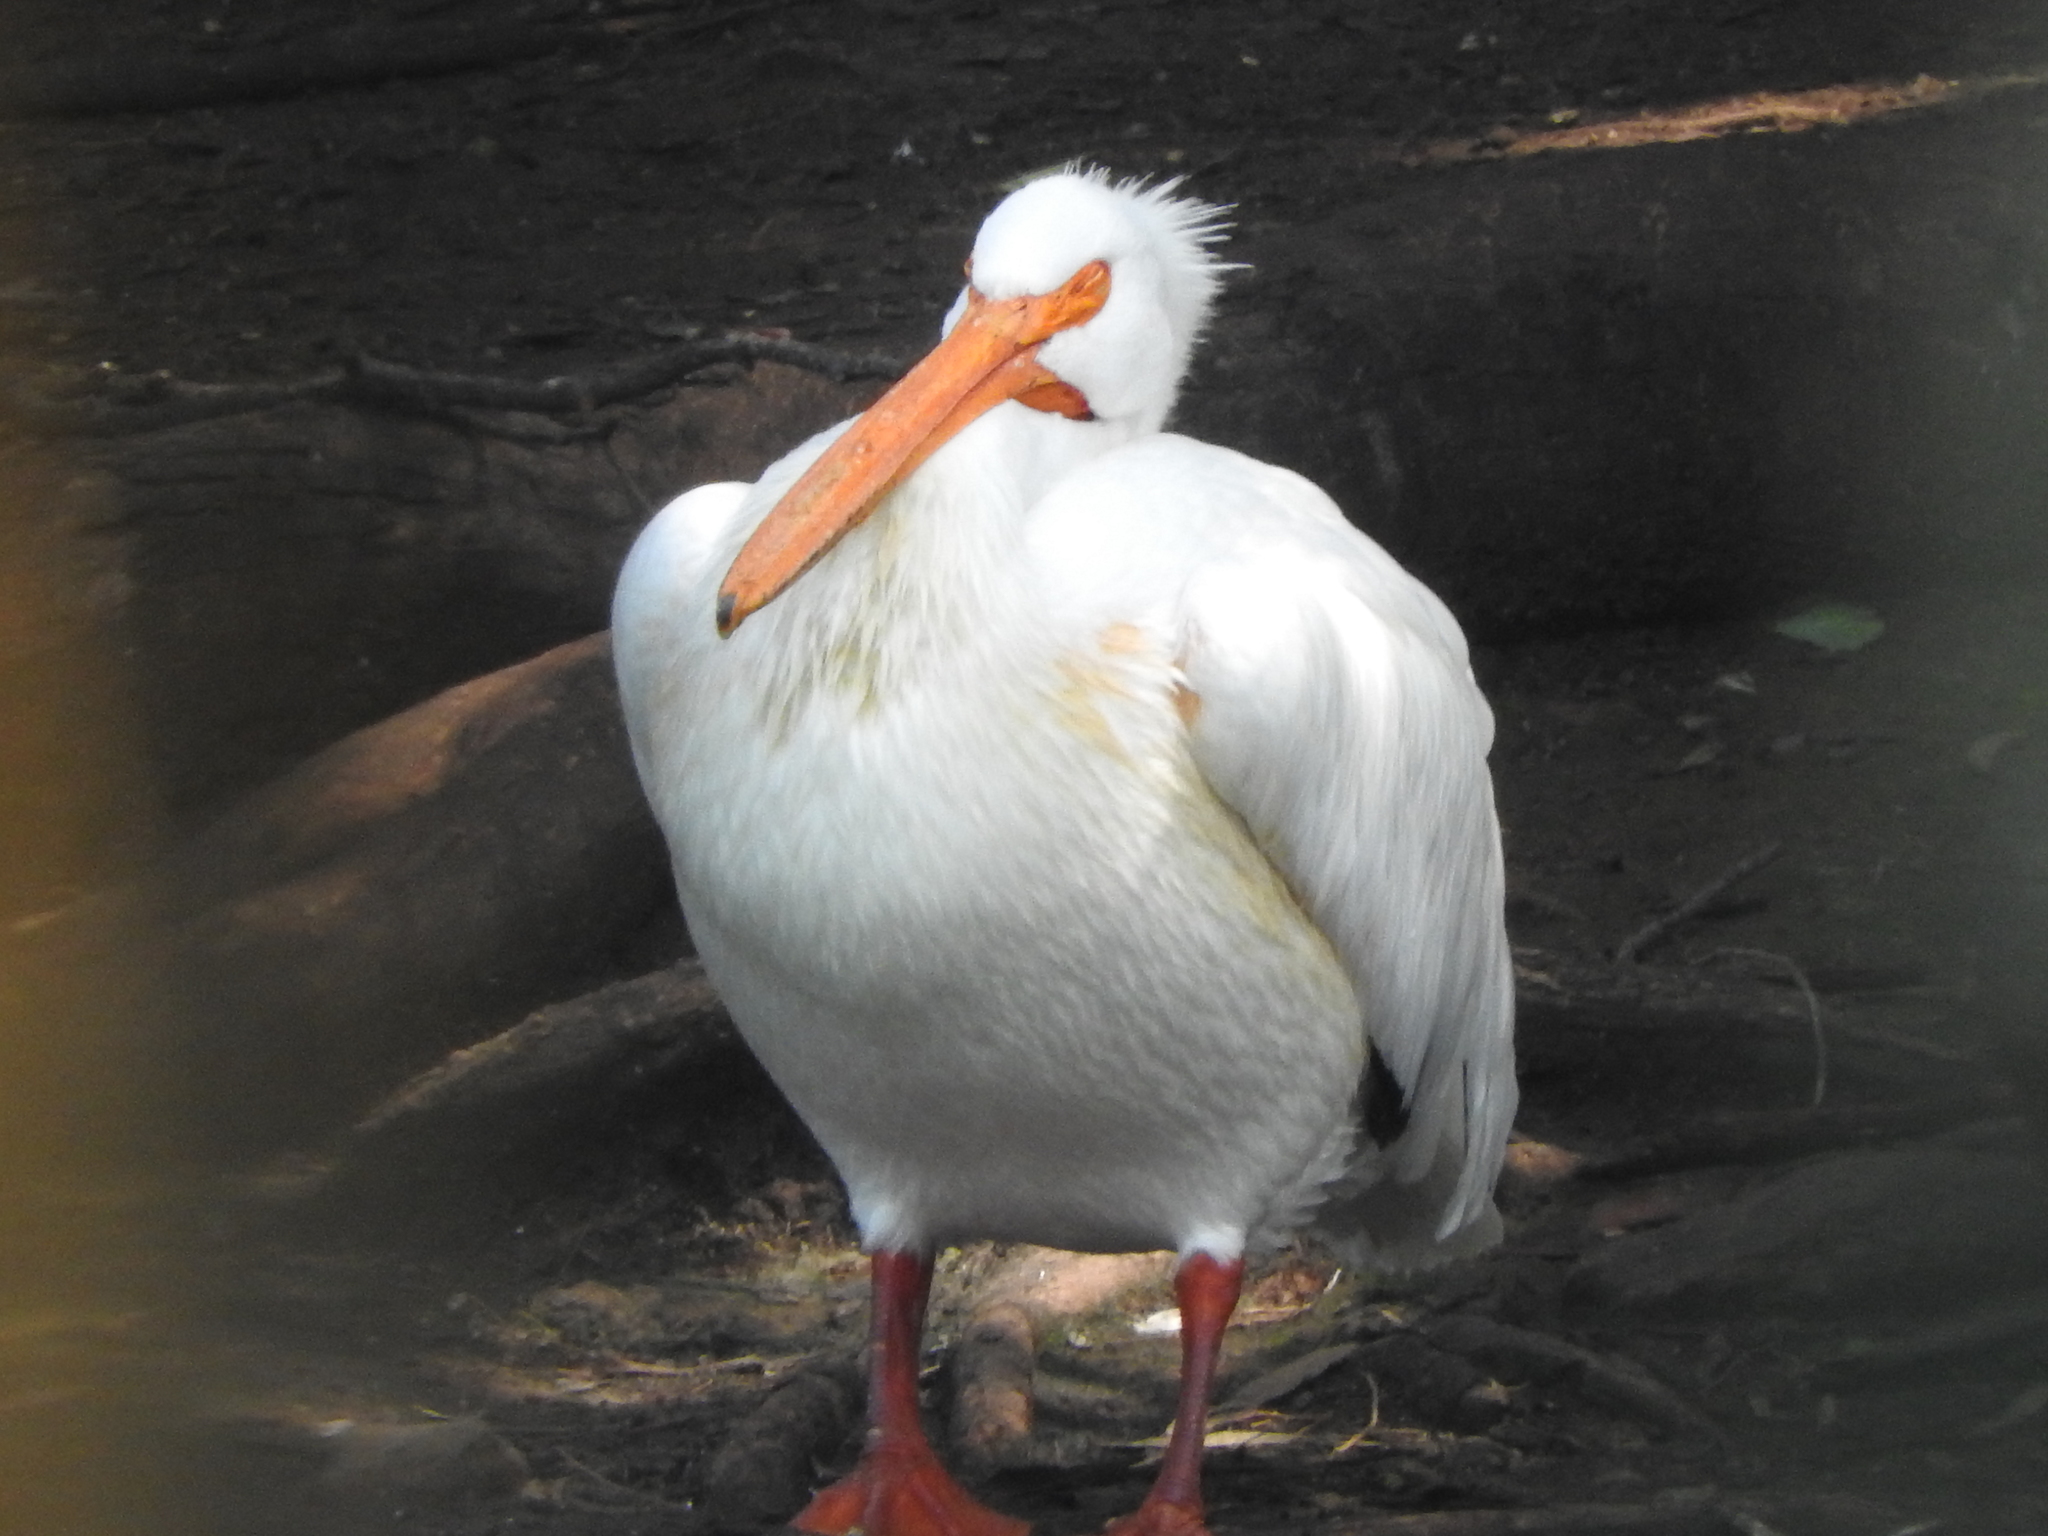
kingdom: Animalia
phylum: Chordata
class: Aves
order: Pelecaniformes
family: Pelecanidae
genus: Pelecanus
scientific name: Pelecanus erythrorhynchos
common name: American white pelican
